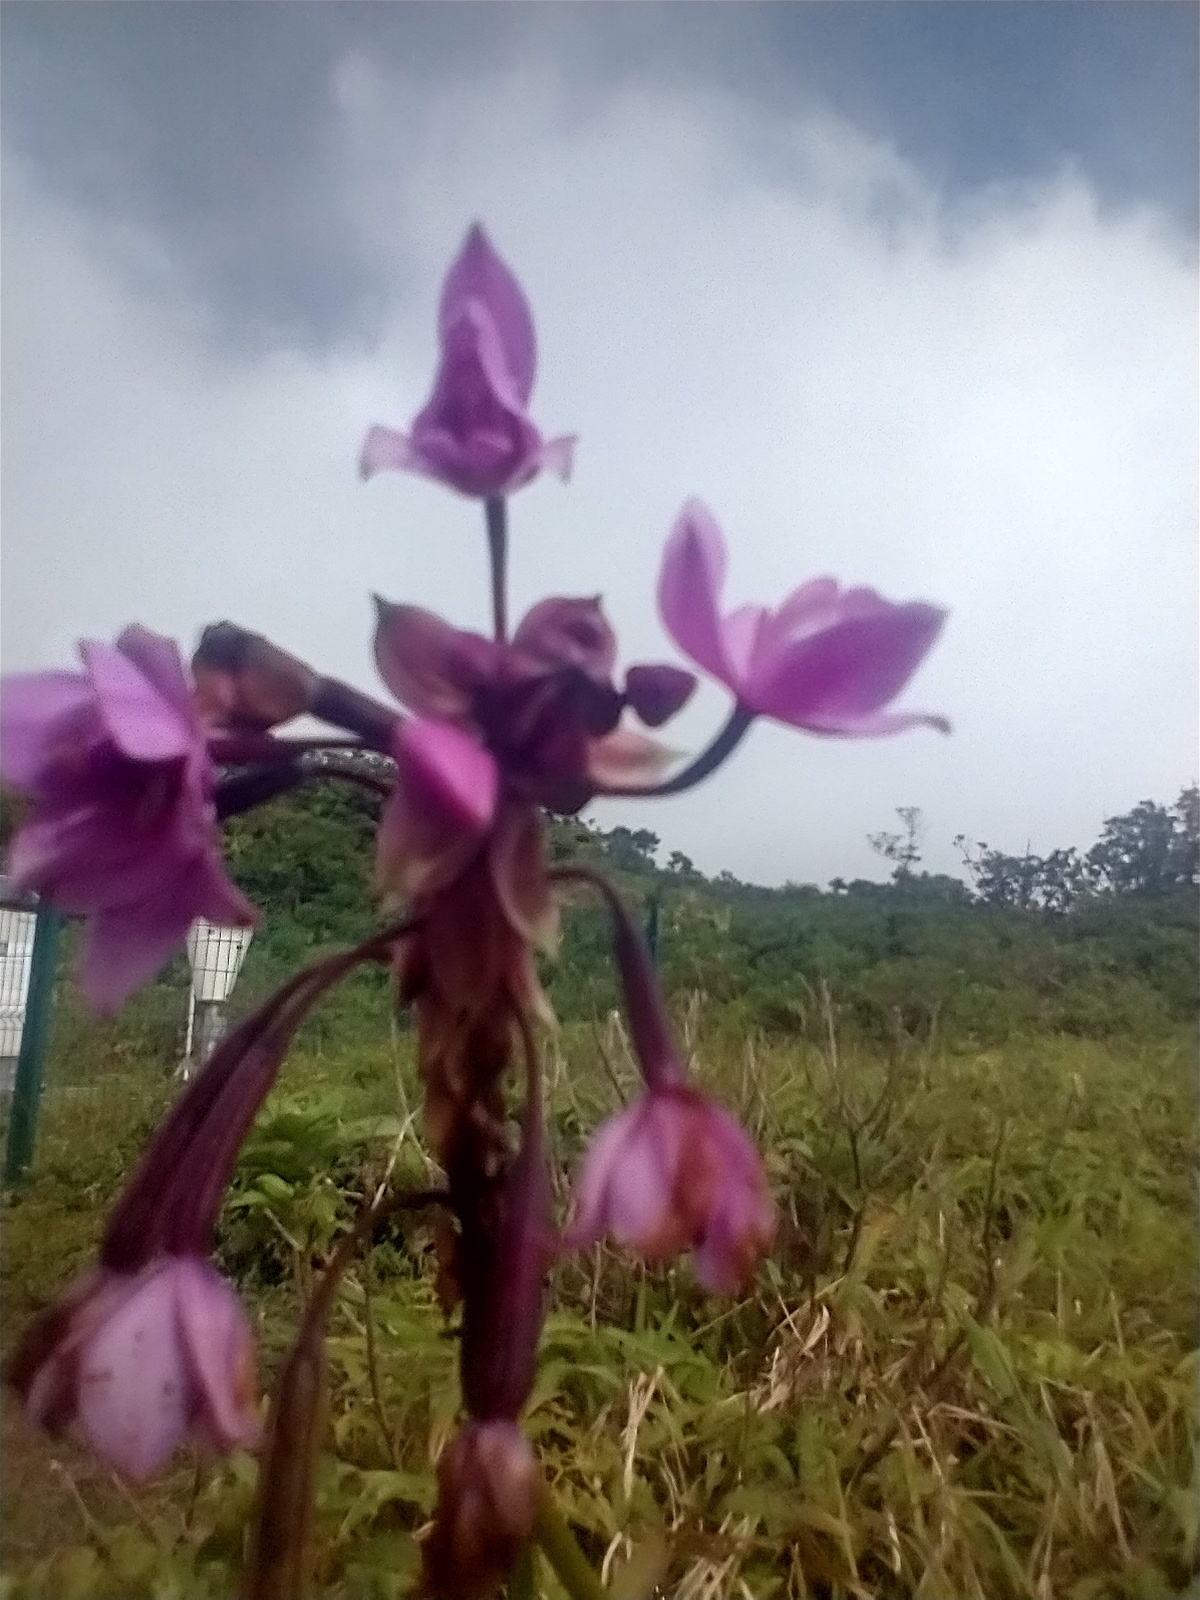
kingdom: Plantae
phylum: Tracheophyta
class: Liliopsida
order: Asparagales
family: Orchidaceae
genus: Spathoglottis
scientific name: Spathoglottis plicata
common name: Philippine ground orchid
